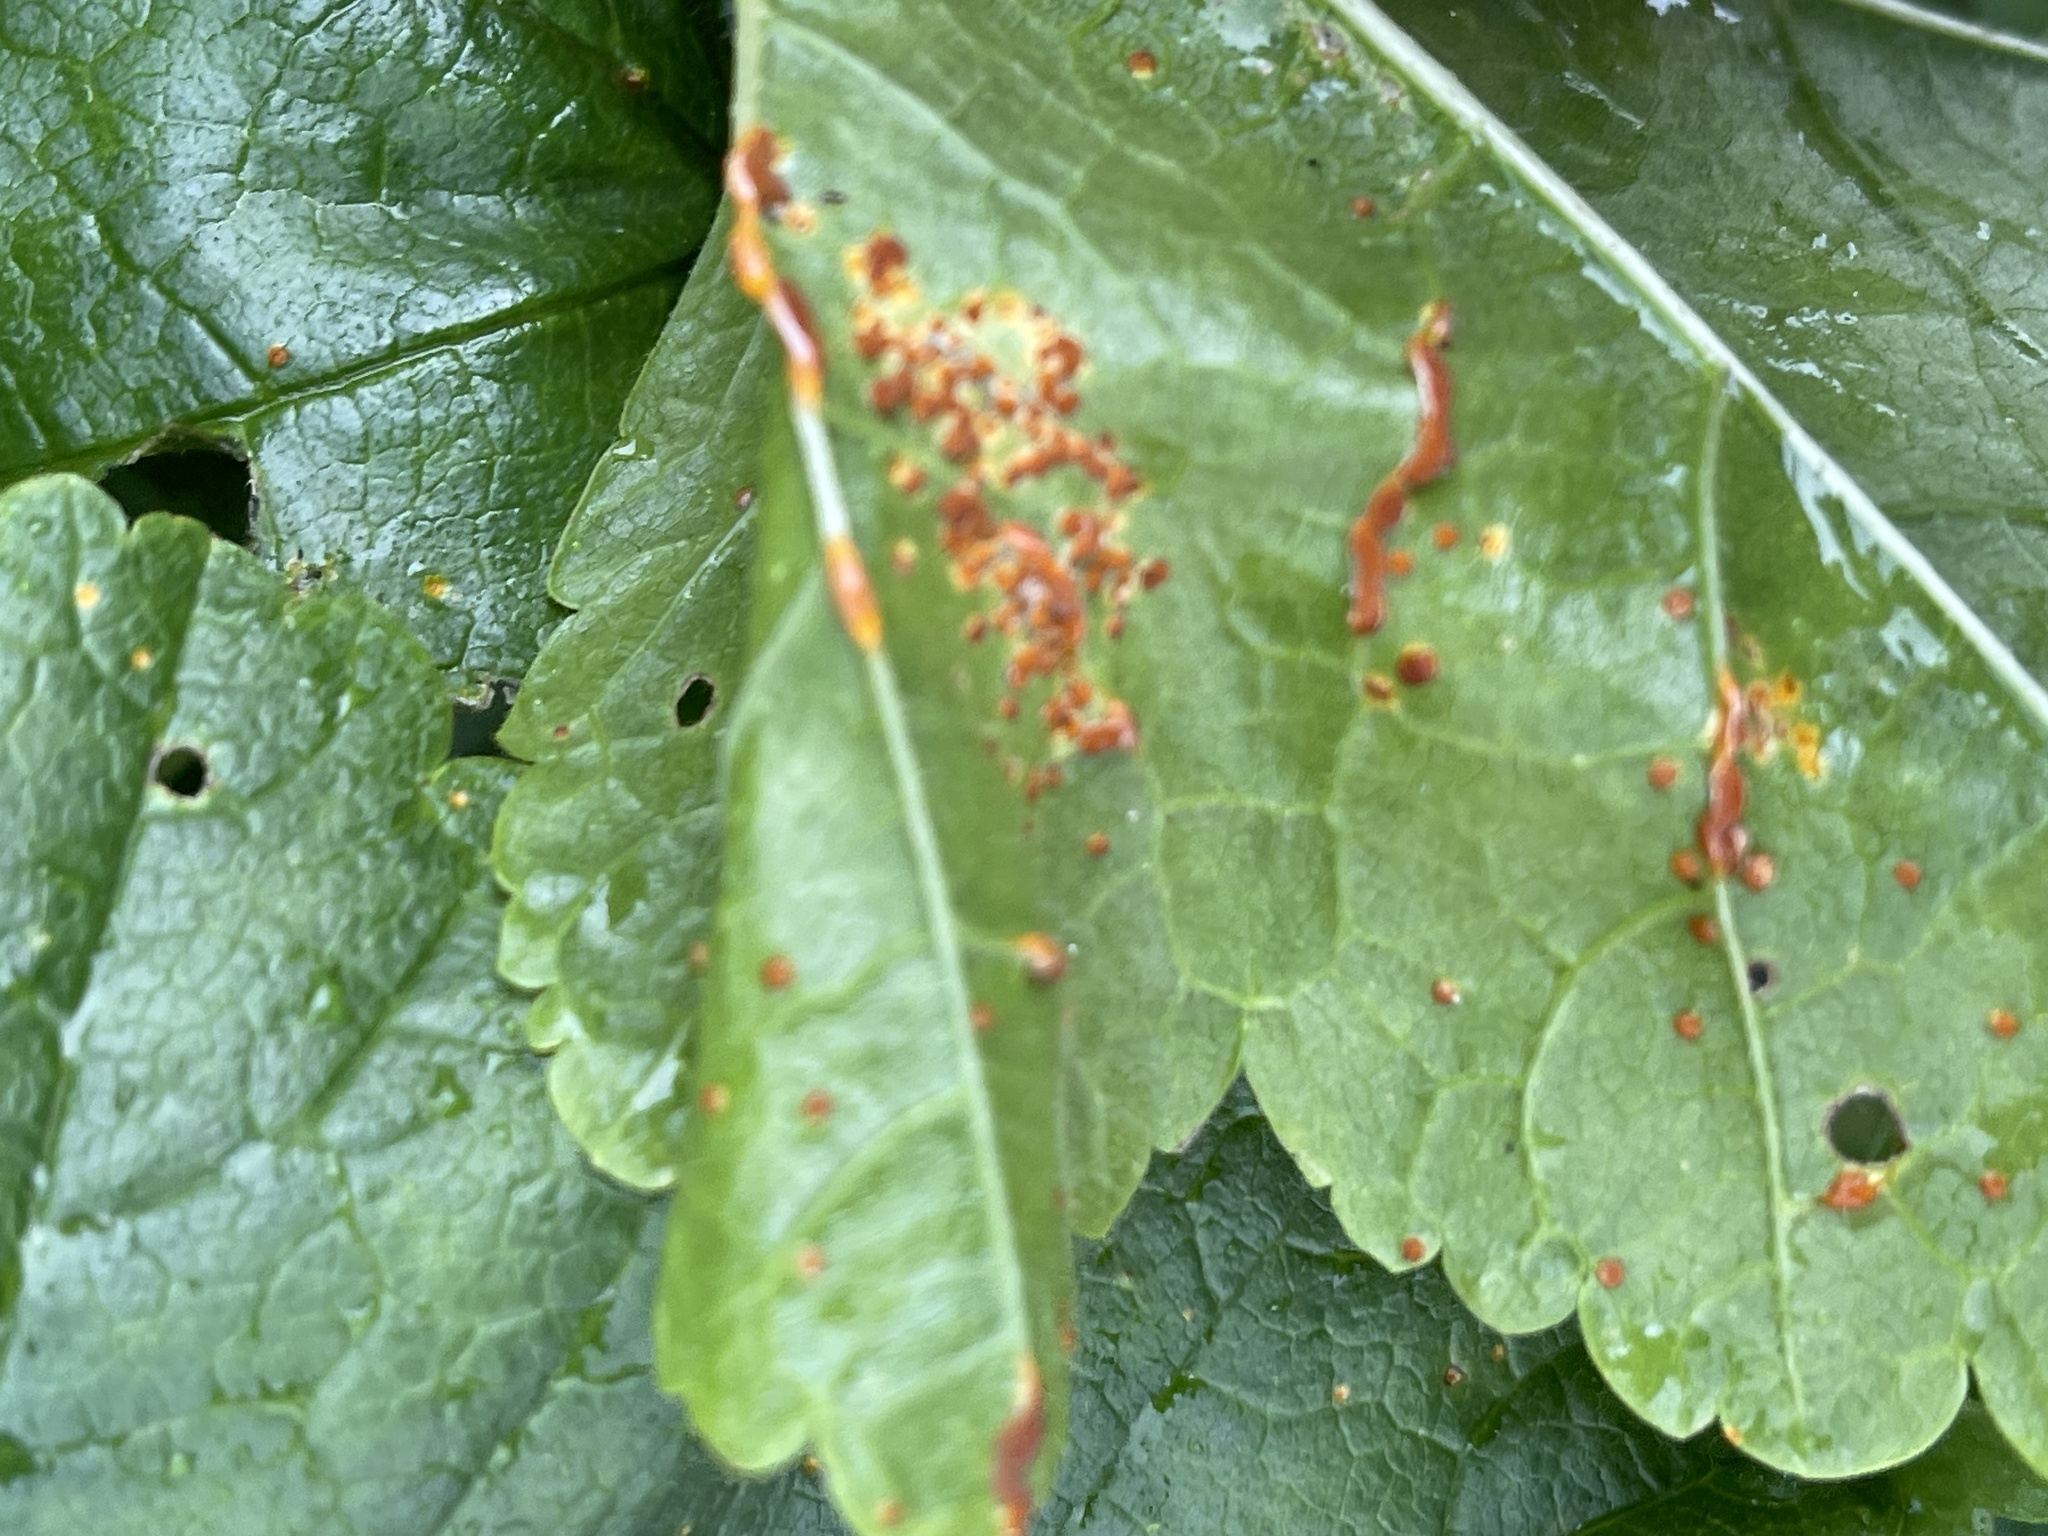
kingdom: Fungi
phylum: Basidiomycota
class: Pucciniomycetes
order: Pucciniales
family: Pucciniaceae
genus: Puccinia
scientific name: Puccinia malvacearum
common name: Hollyhock rust
